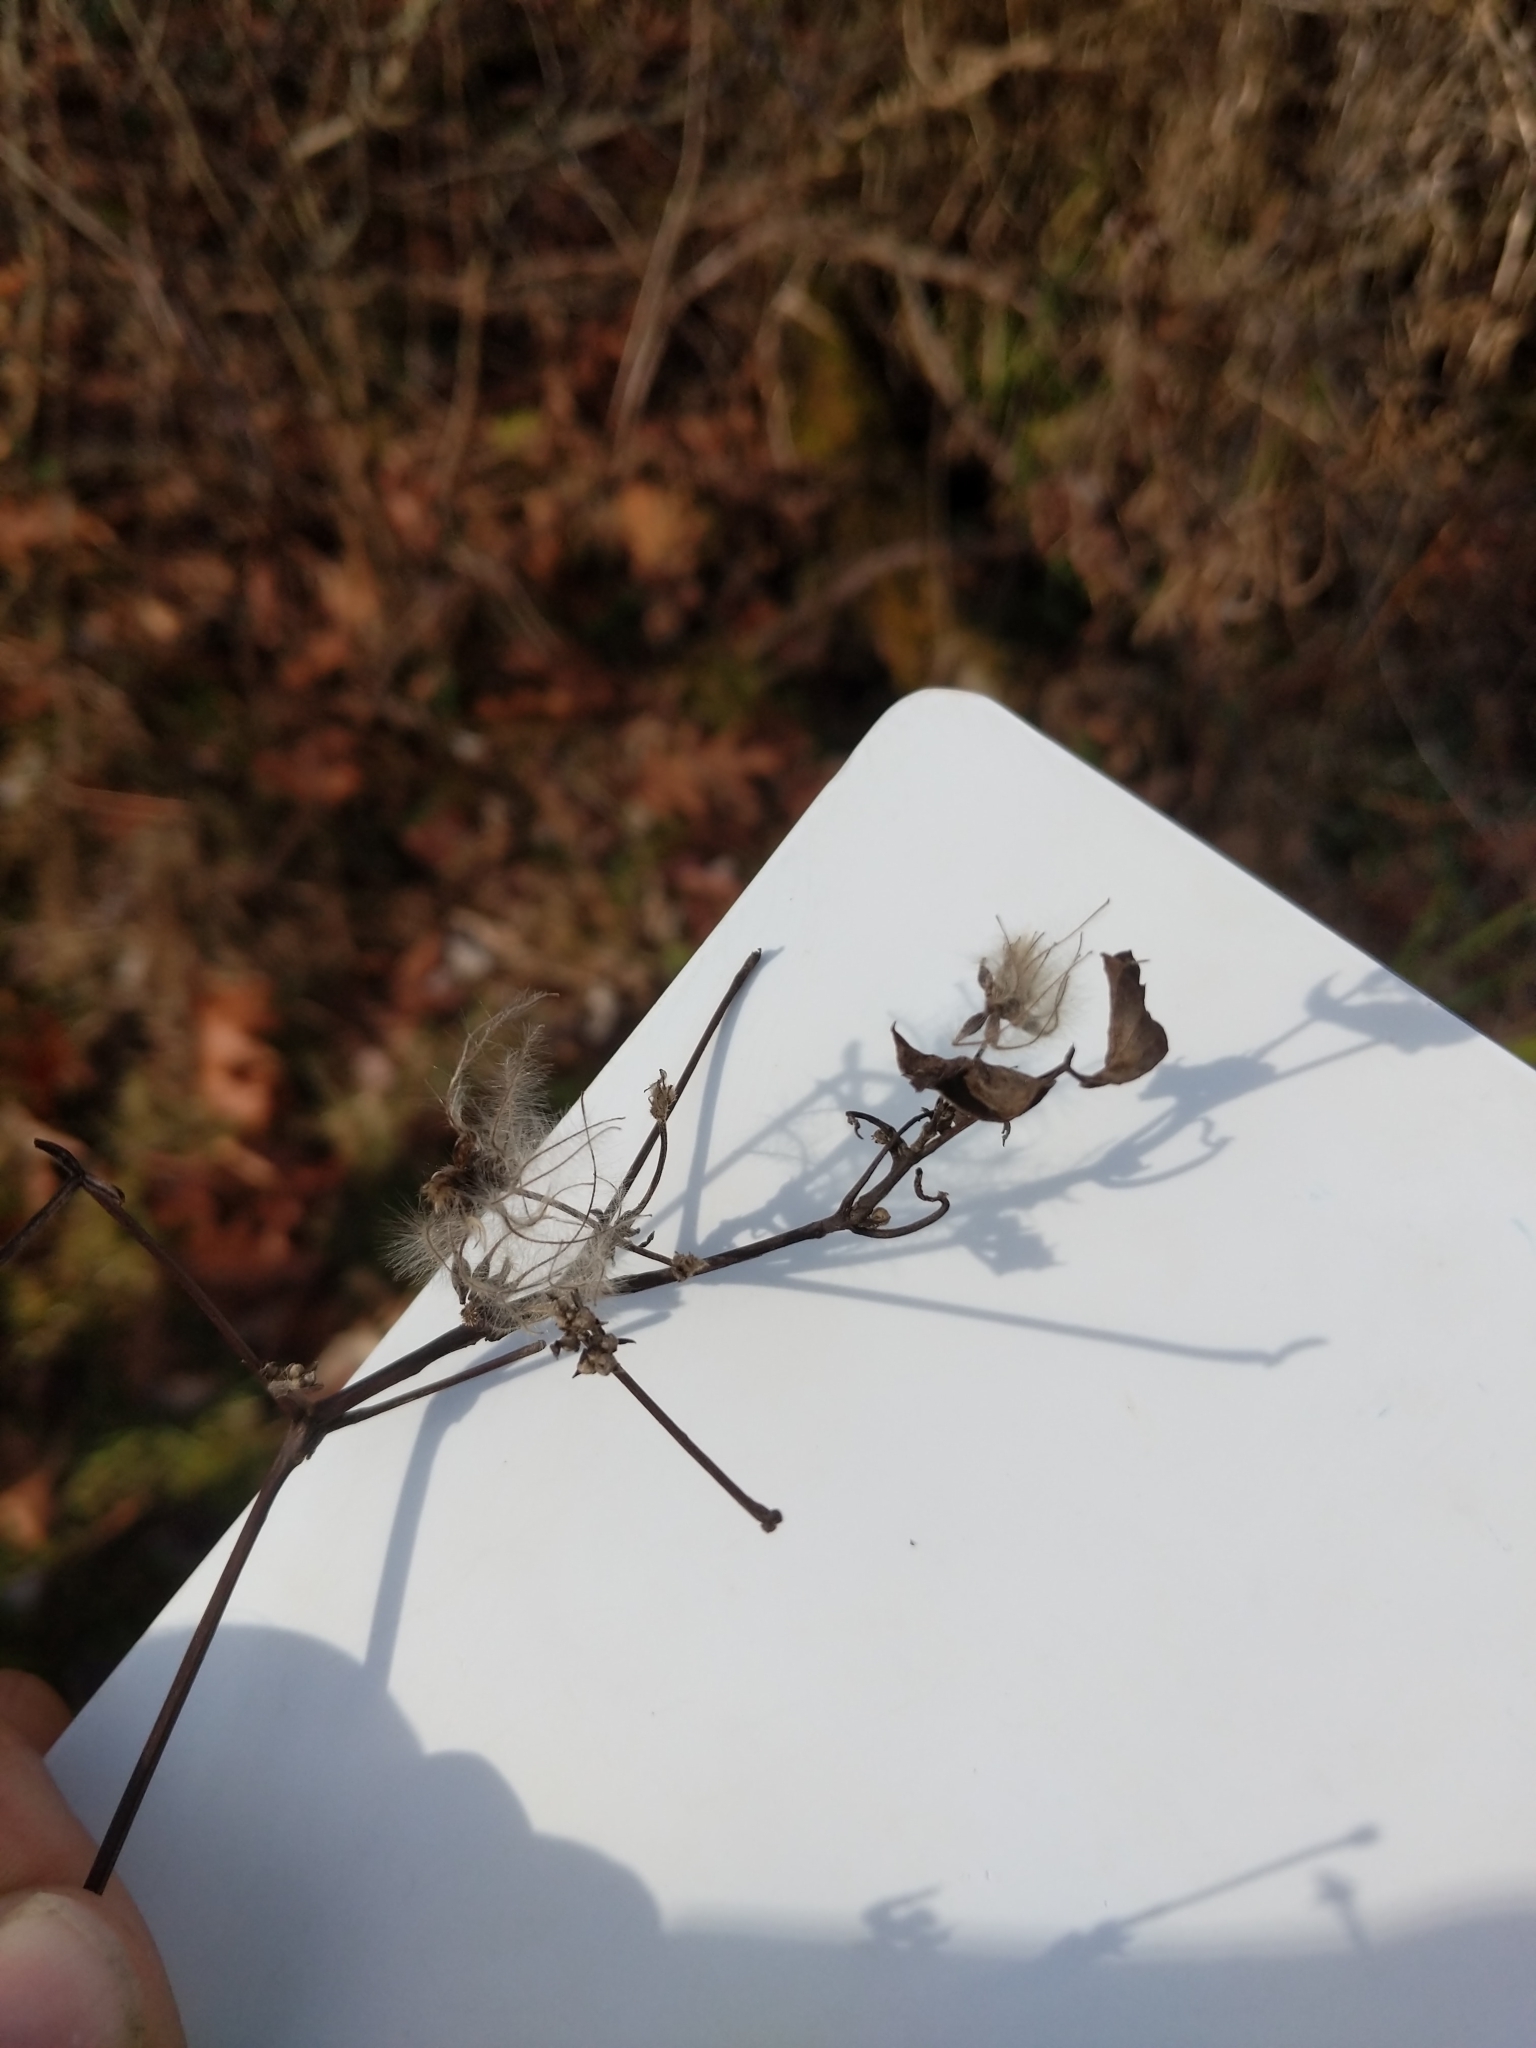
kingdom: Plantae
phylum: Tracheophyta
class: Magnoliopsida
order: Ranunculales
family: Ranunculaceae
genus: Clematis
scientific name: Clematis virginiana
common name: Virgin's-bower
